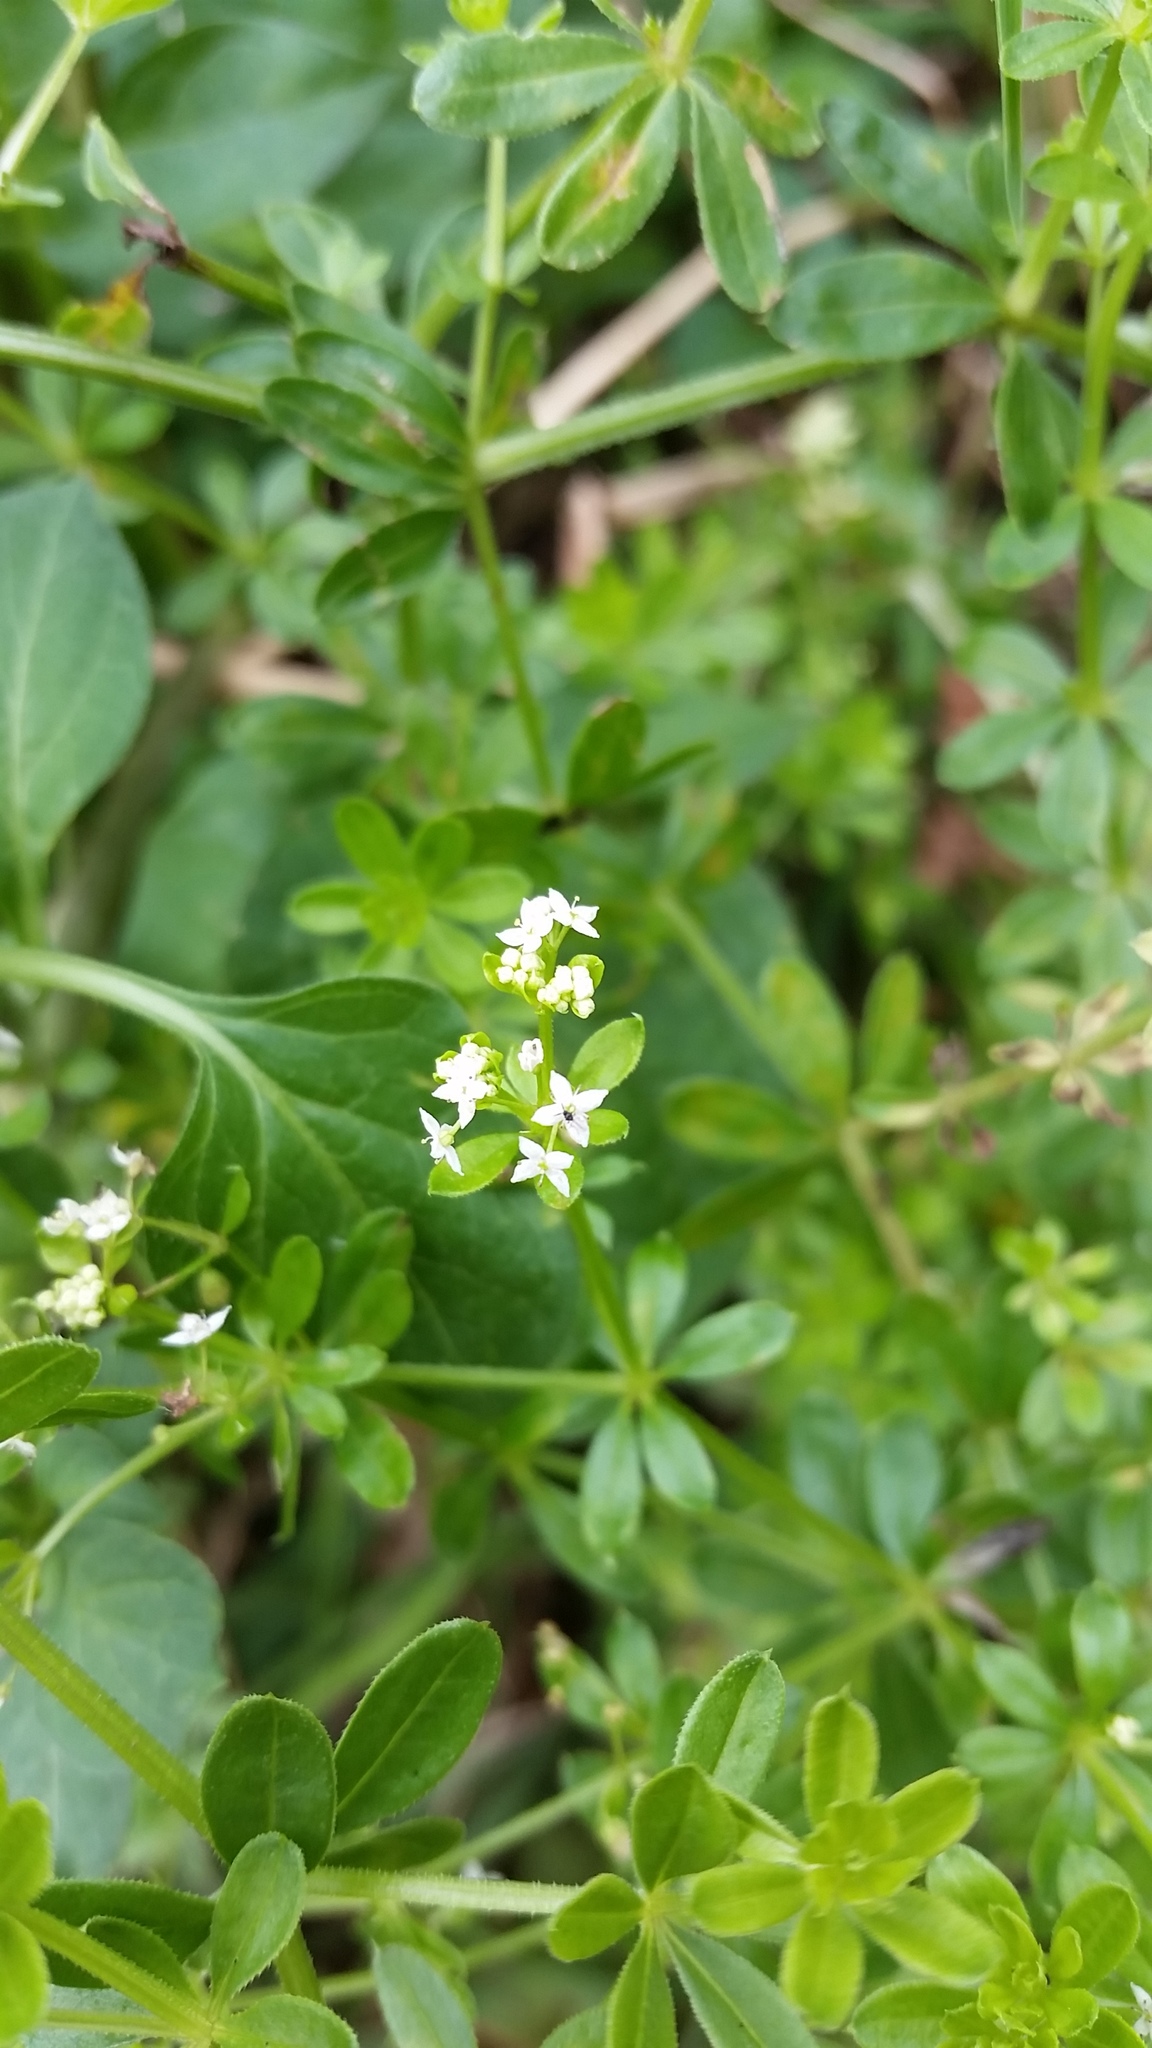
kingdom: Plantae
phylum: Tracheophyta
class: Magnoliopsida
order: Gentianales
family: Rubiaceae
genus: Galium
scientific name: Galium asprellum
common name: Rough bedstraw
